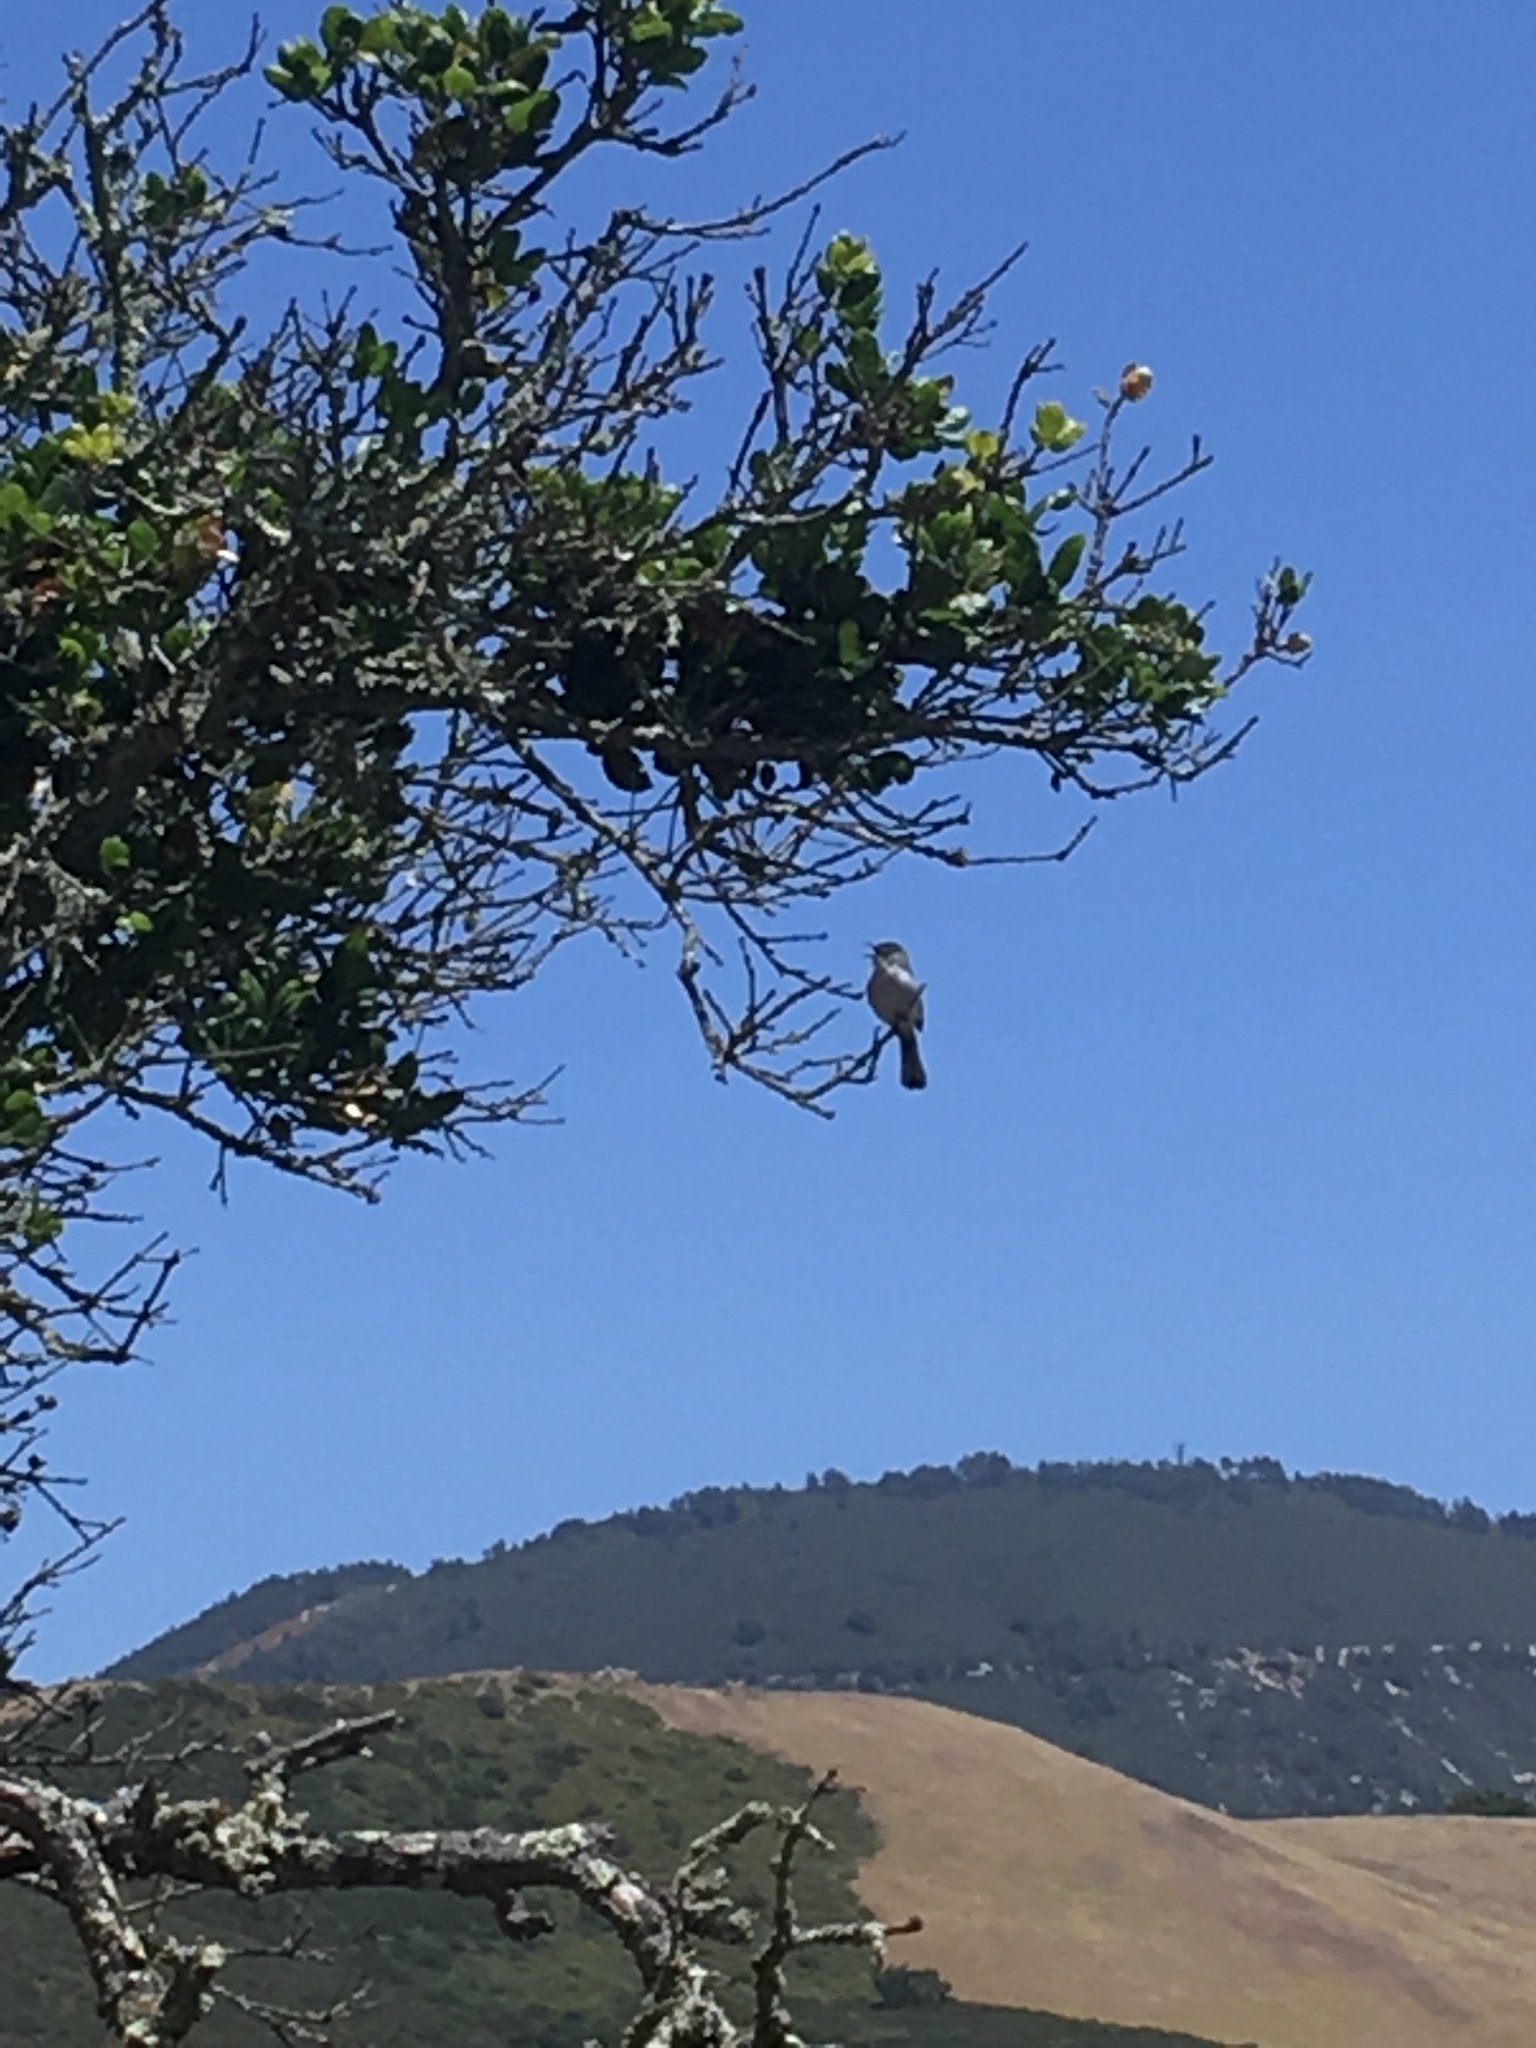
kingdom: Animalia
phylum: Chordata
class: Aves
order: Passeriformes
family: Polioptilidae
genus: Polioptila
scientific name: Polioptila caerulea
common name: Blue-gray gnatcatcher
